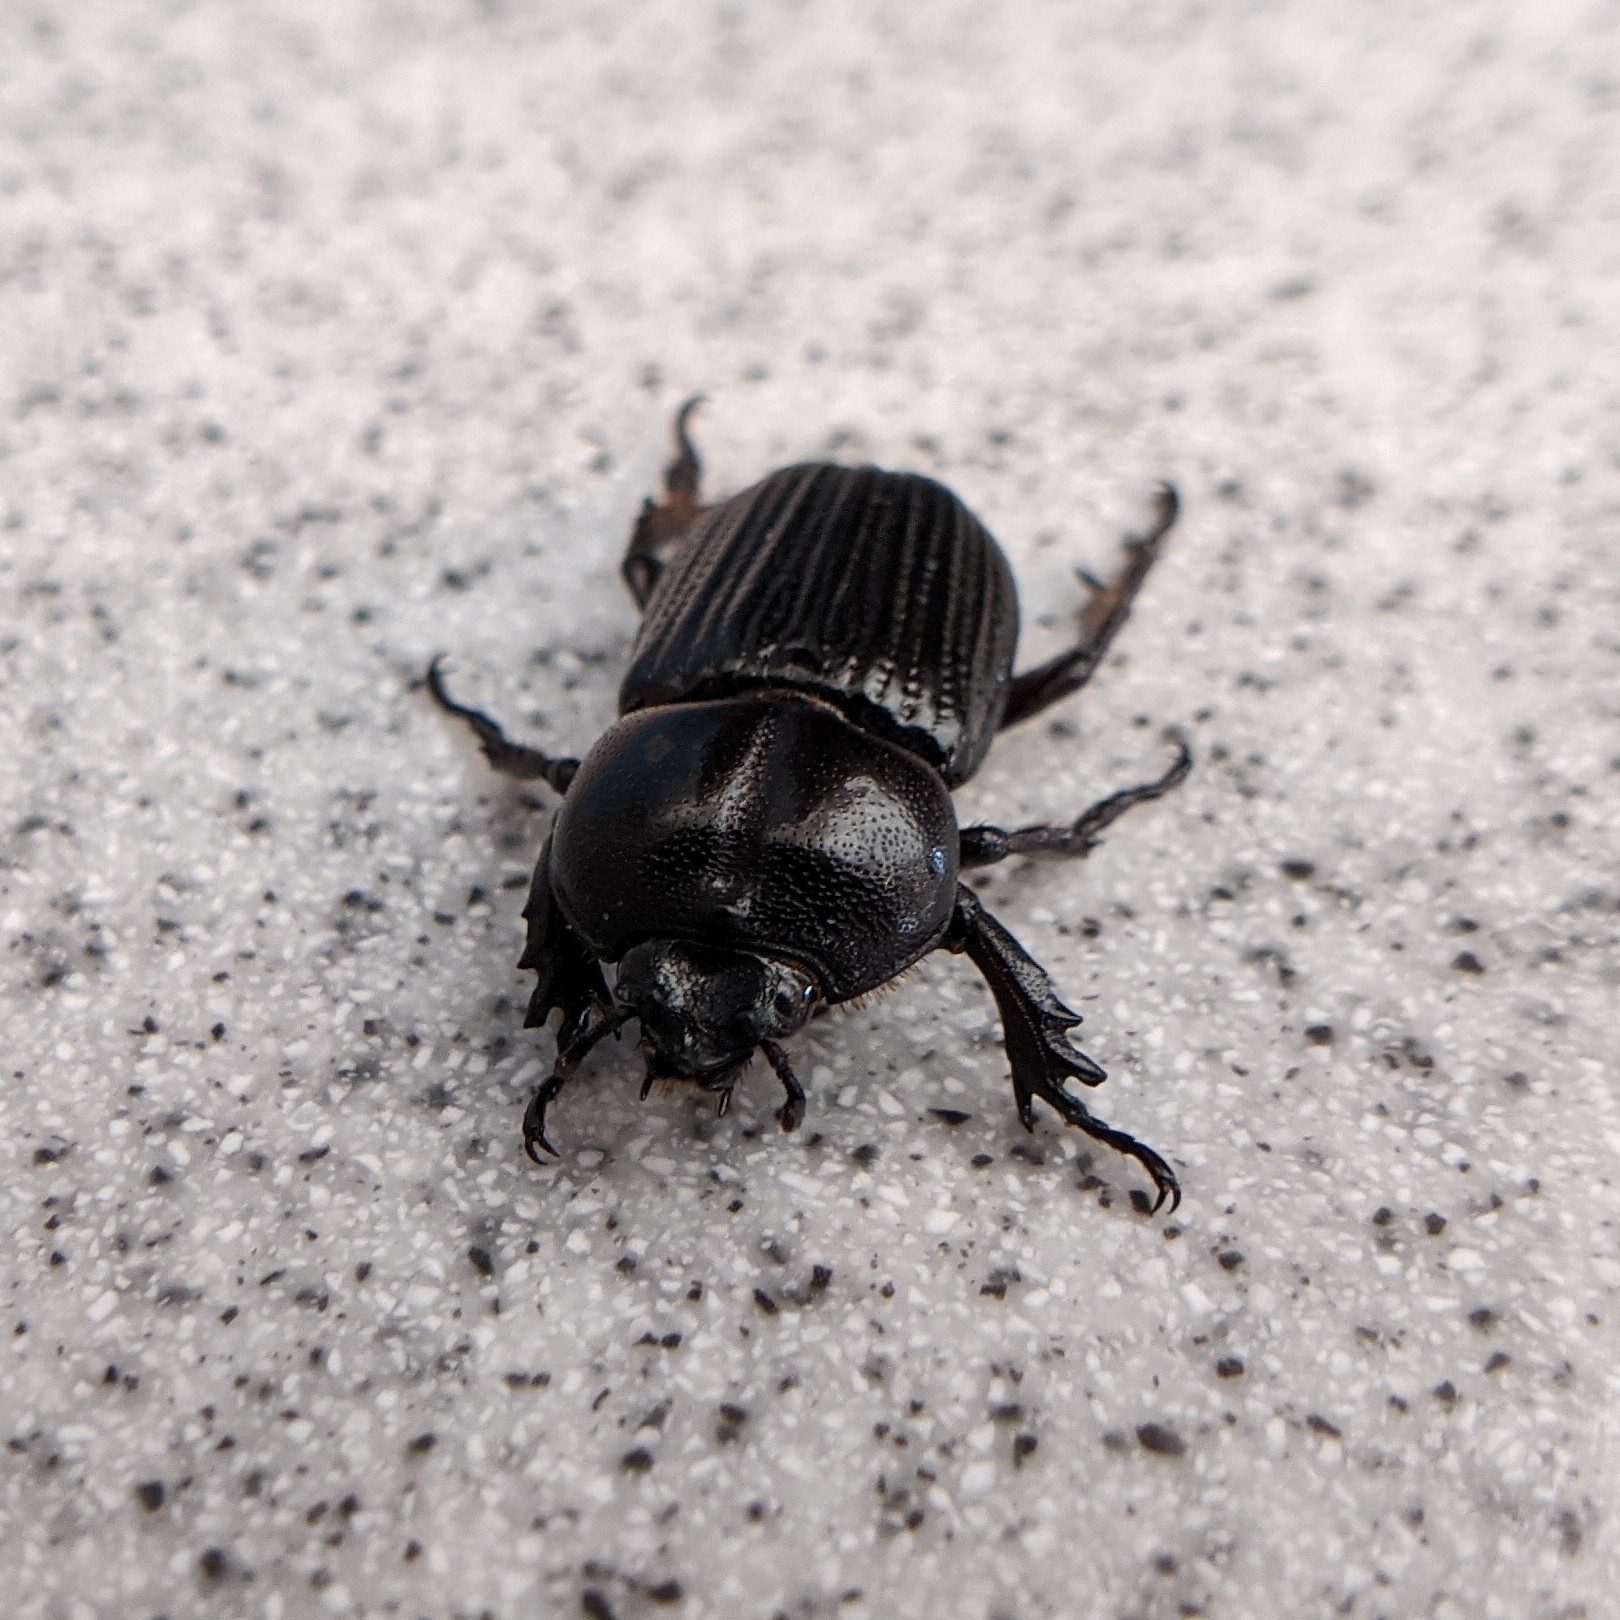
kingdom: Animalia
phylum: Arthropoda
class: Insecta
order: Coleoptera
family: Scarabaeidae
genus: Phileurus
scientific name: Phileurus valgus
